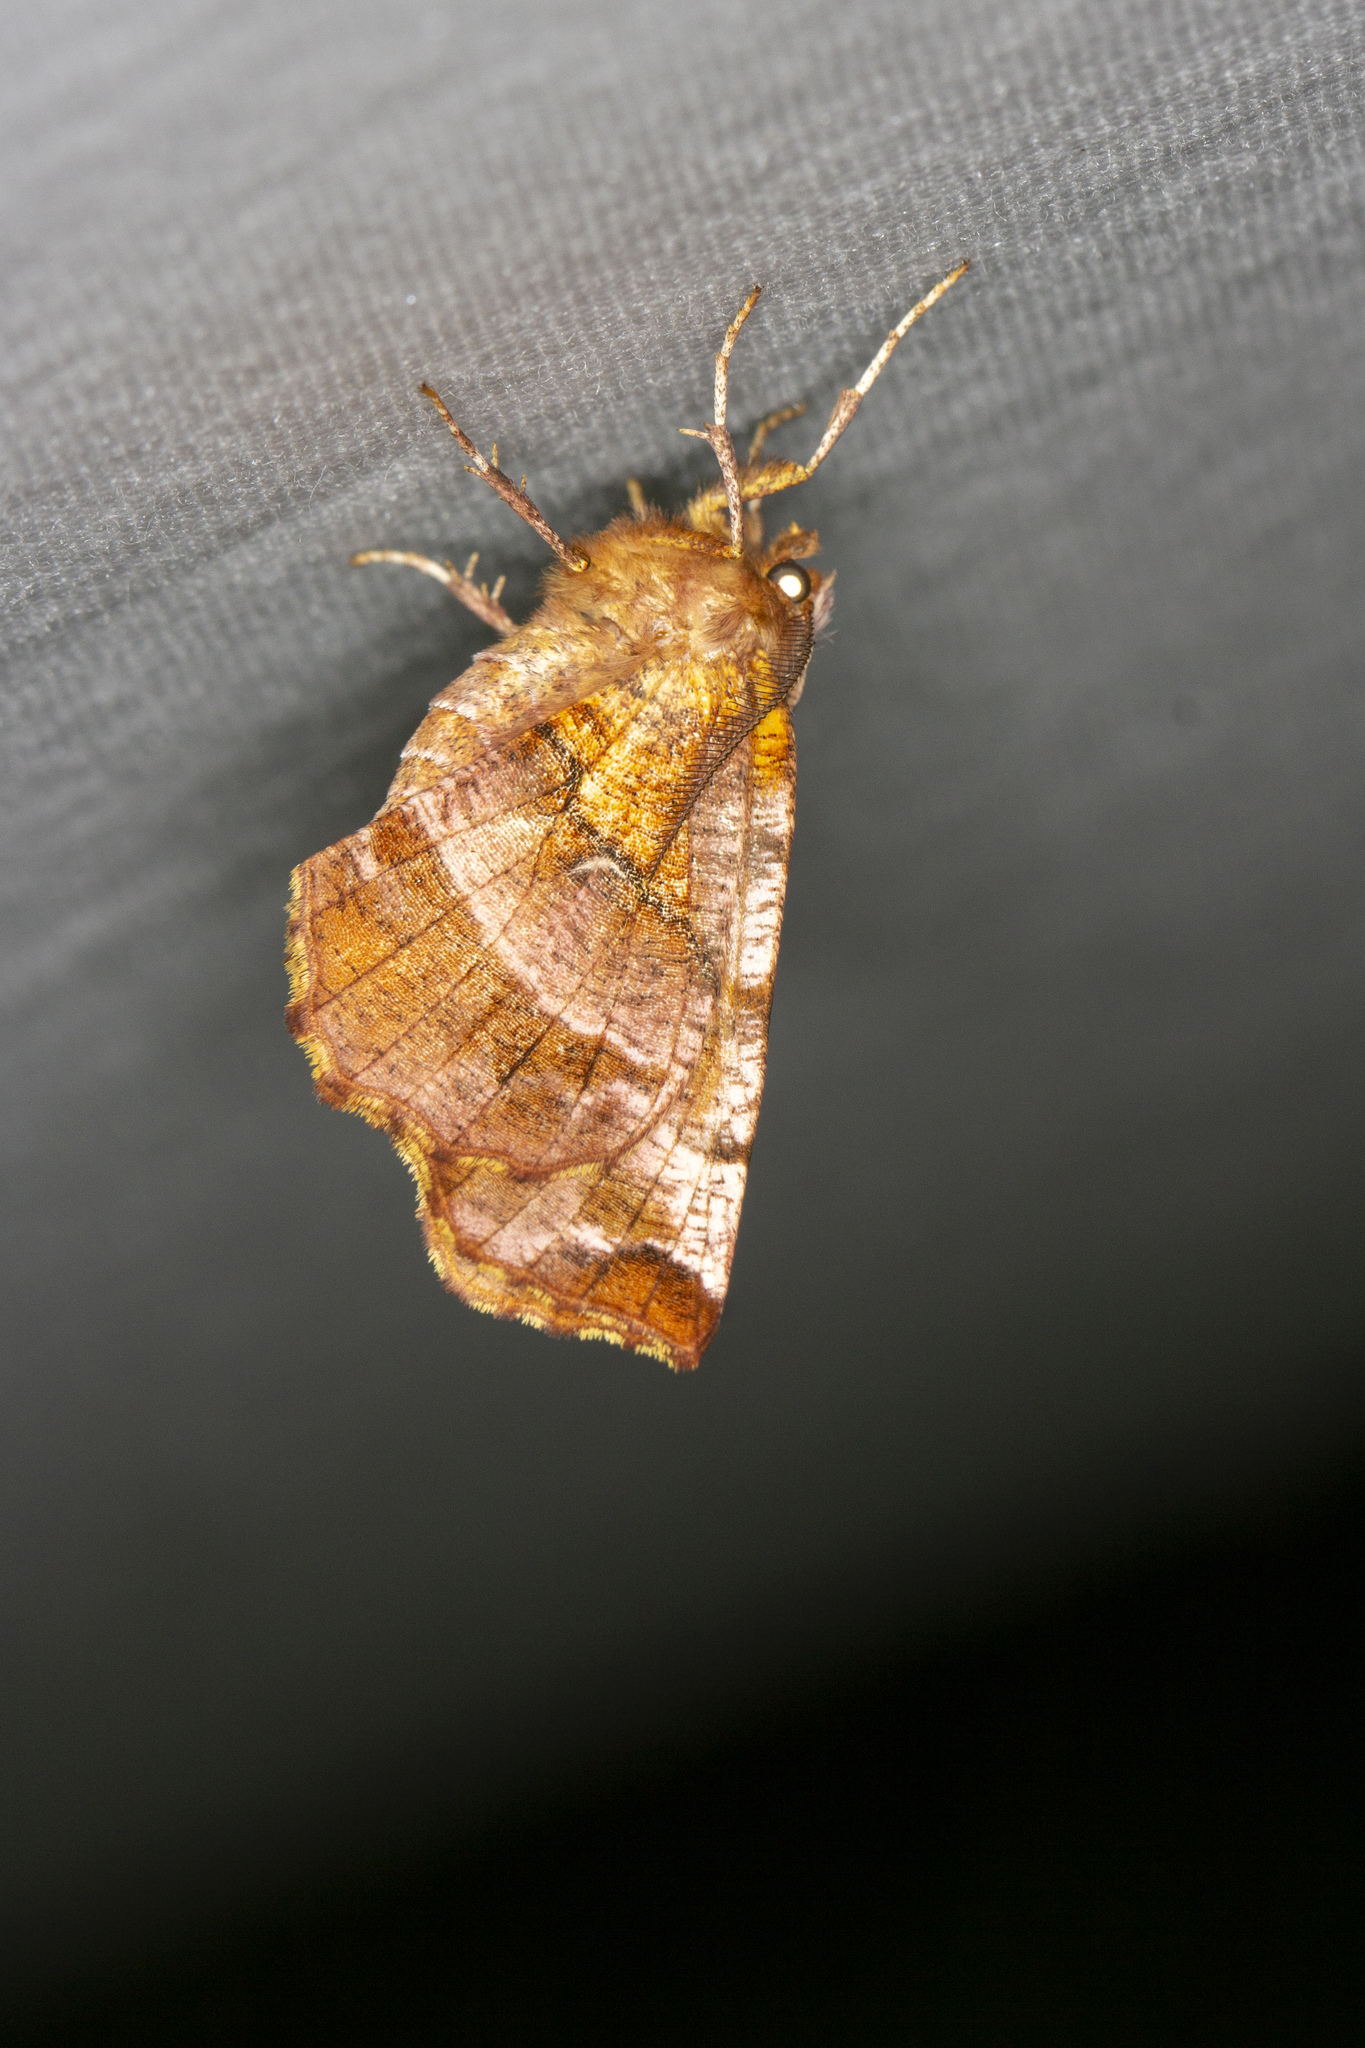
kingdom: Animalia
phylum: Arthropoda
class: Insecta
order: Lepidoptera
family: Geometridae
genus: Selenia
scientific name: Selenia dentaria
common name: Early thorn
